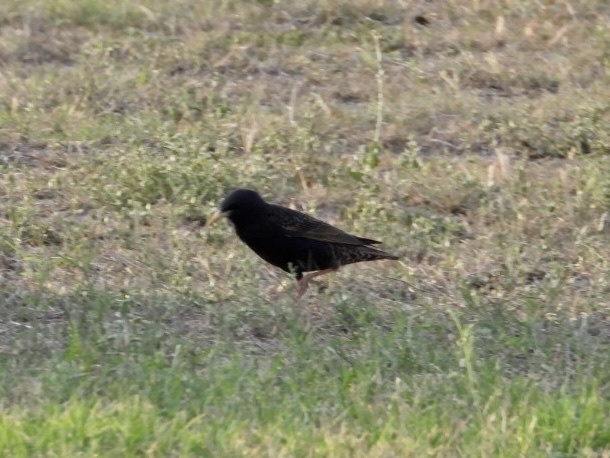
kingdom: Animalia
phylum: Chordata
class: Aves
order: Passeriformes
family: Sturnidae
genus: Sturnus
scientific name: Sturnus vulgaris
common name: Common starling
